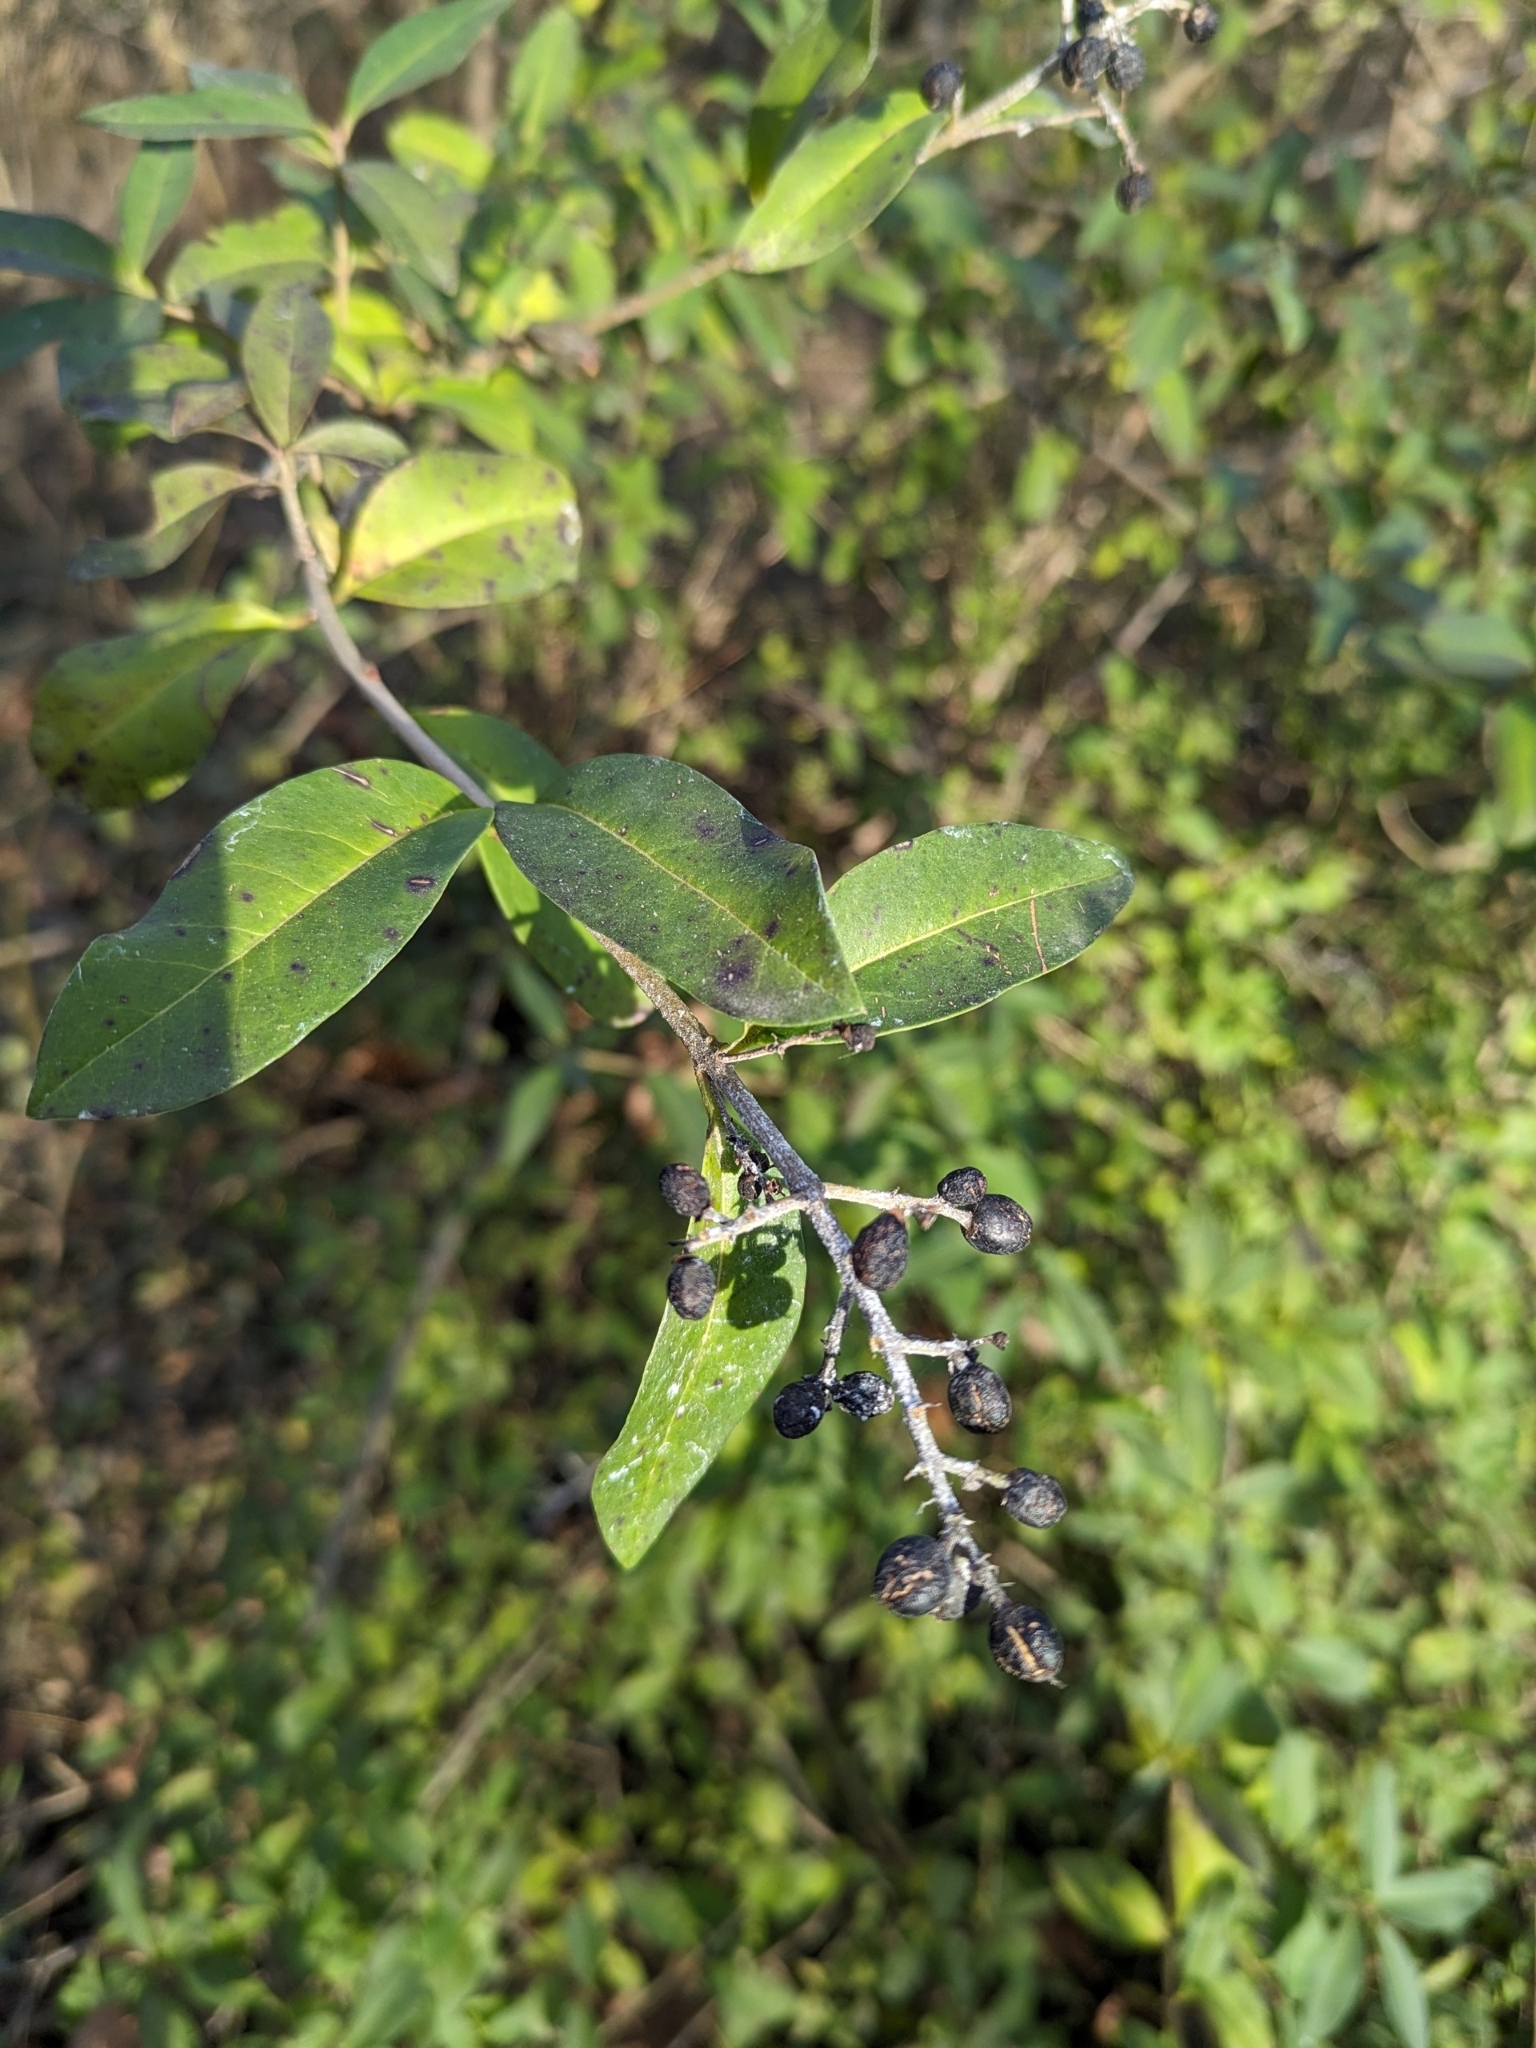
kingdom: Plantae
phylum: Tracheophyta
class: Magnoliopsida
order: Lamiales
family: Oleaceae
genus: Ligustrum
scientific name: Ligustrum vulgare
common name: Wild privet
